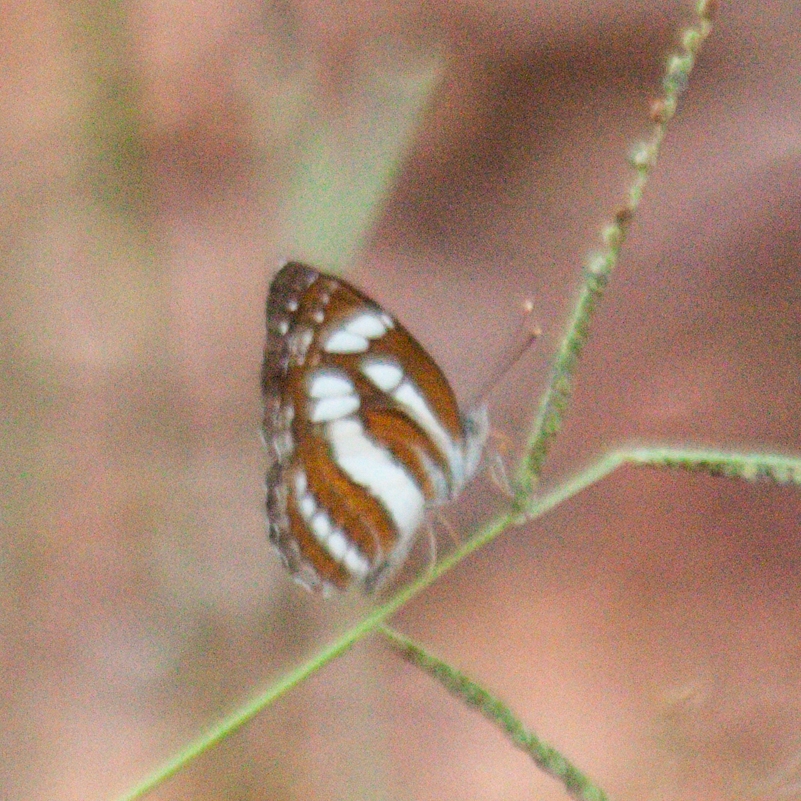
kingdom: Animalia
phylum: Arthropoda
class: Insecta
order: Lepidoptera
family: Nymphalidae
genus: Neptis
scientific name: Neptis hylas
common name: Common sailer
